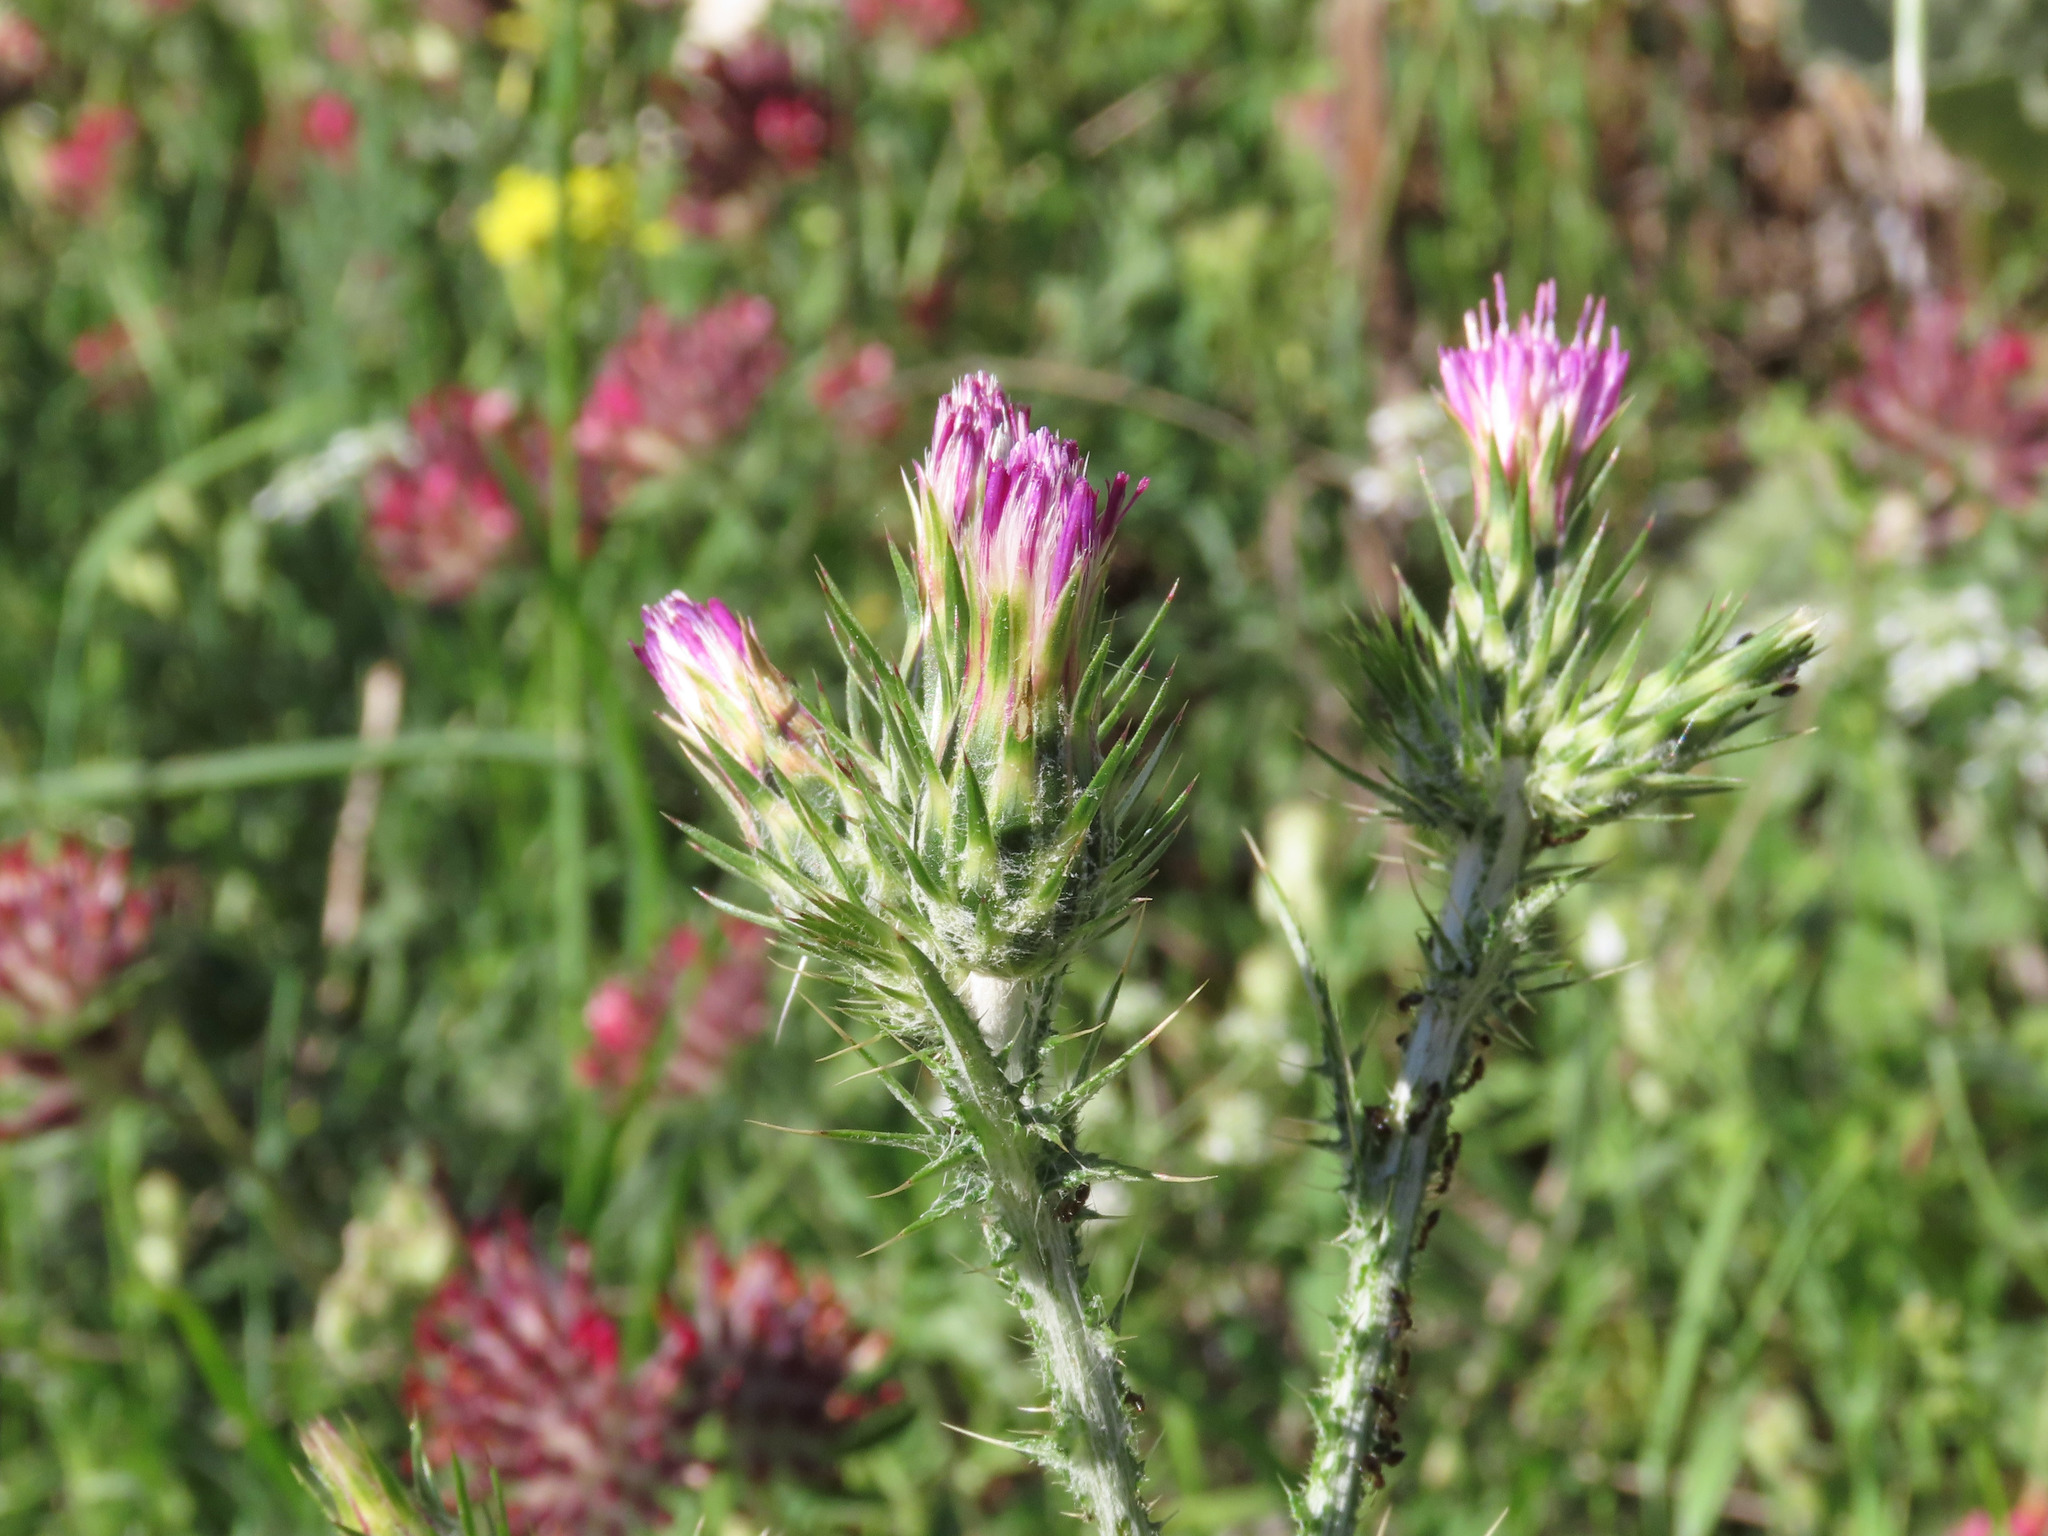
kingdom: Plantae
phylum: Tracheophyta
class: Magnoliopsida
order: Asterales
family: Asteraceae
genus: Carduus
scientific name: Carduus pycnocephalus
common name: Plymouth thistle
